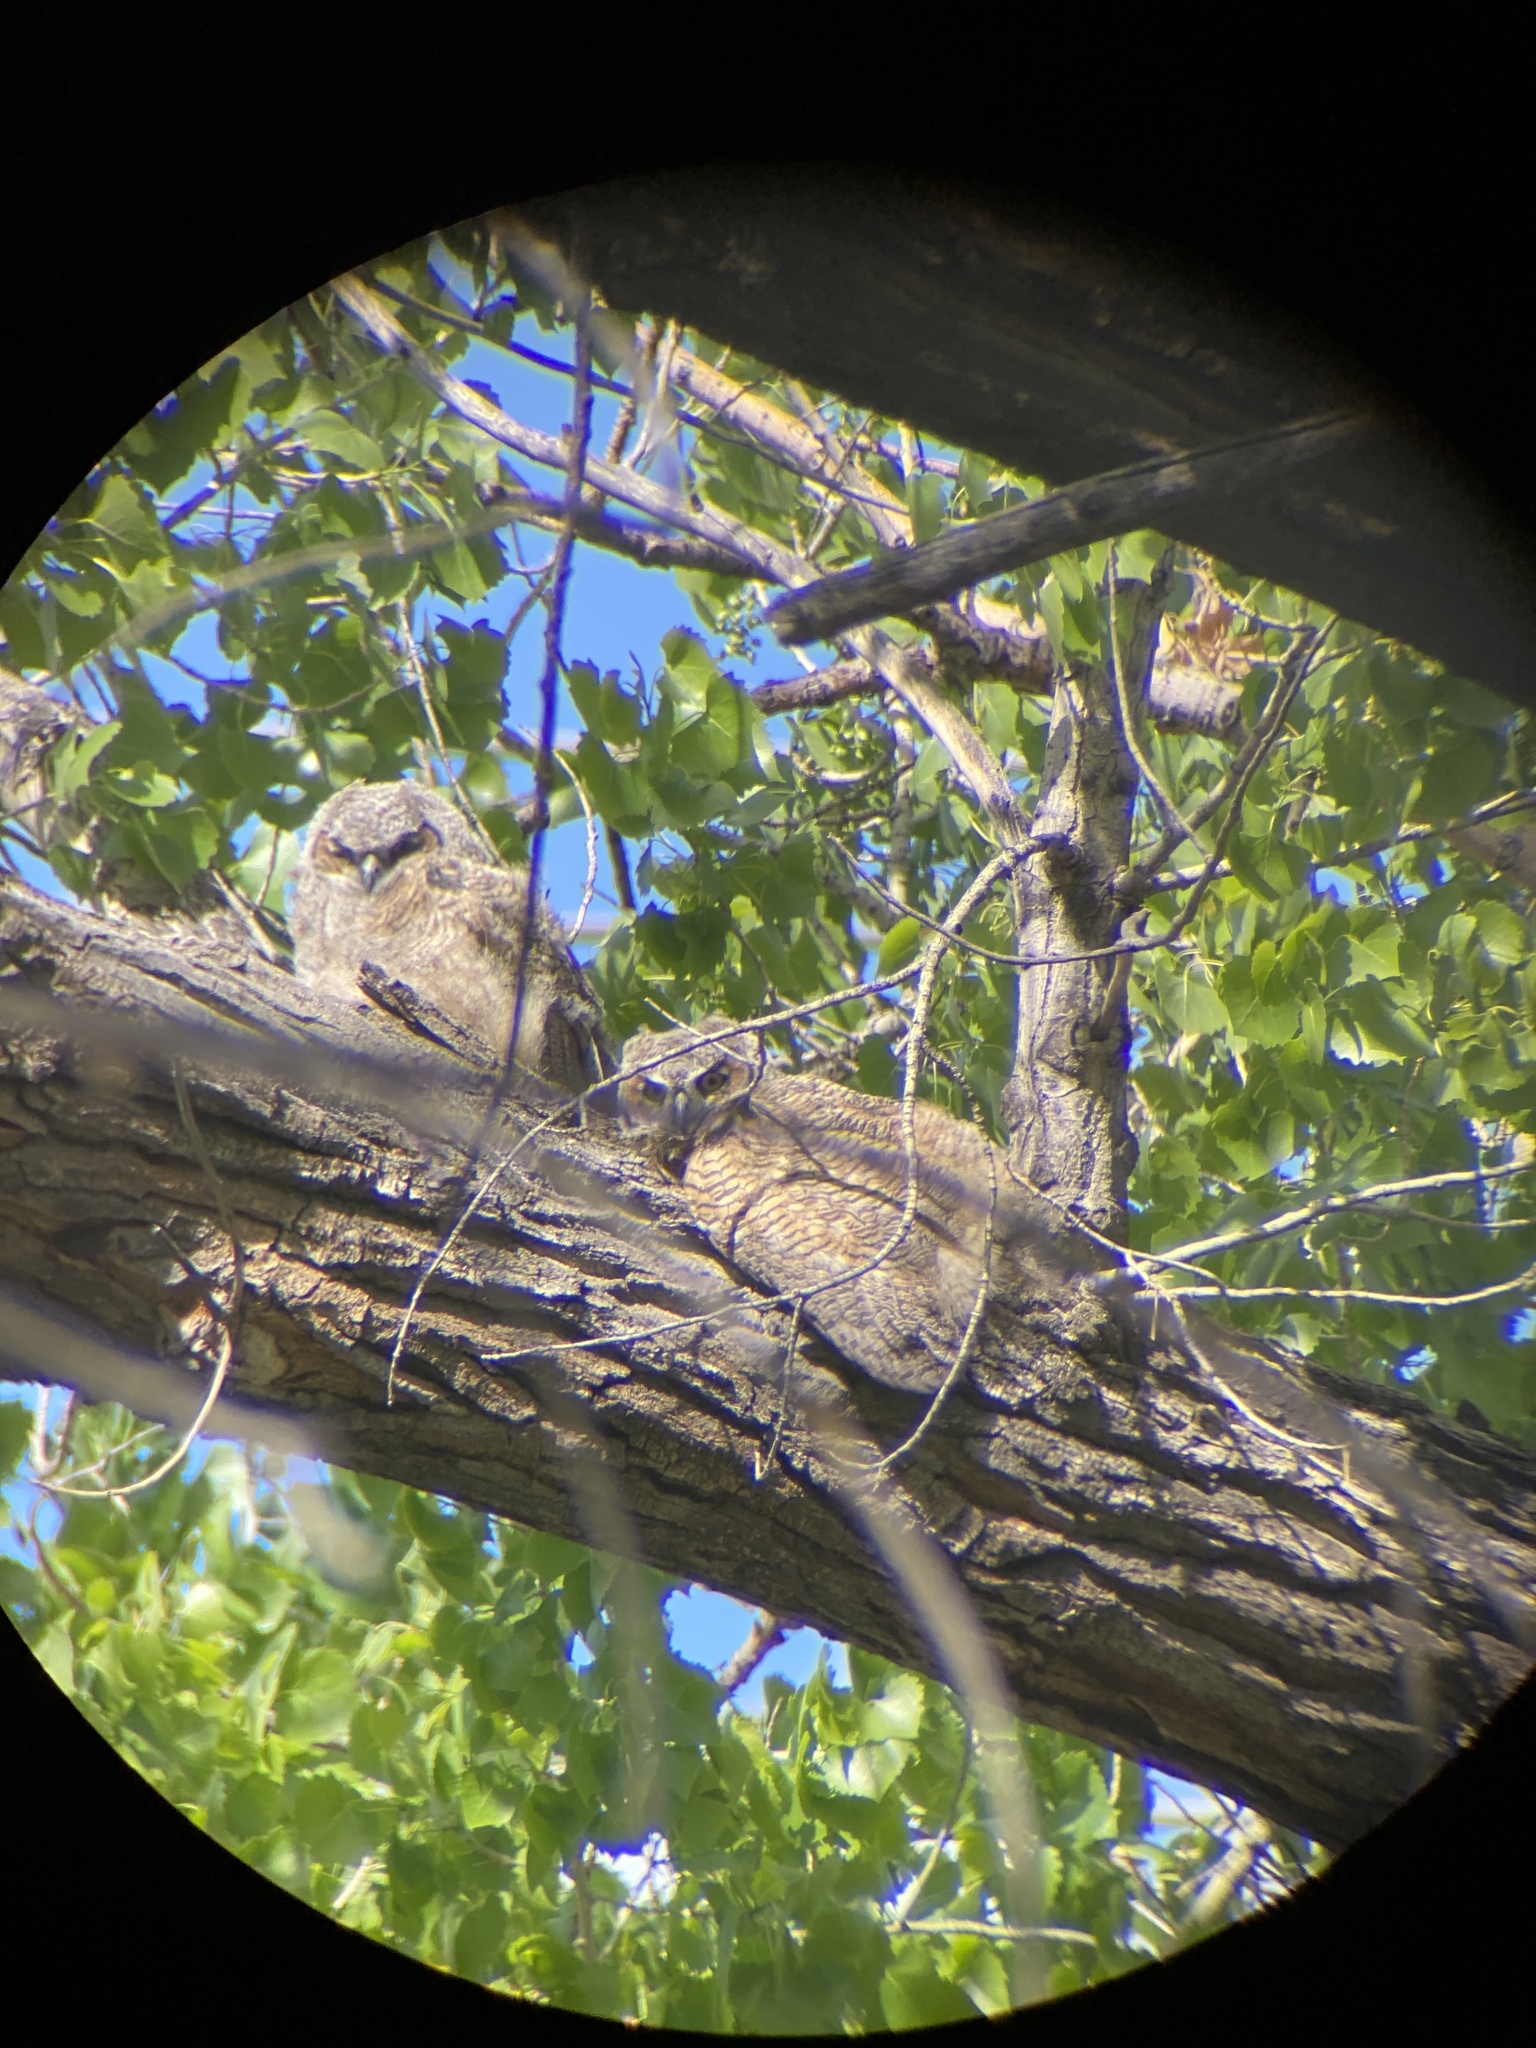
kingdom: Animalia
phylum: Chordata
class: Aves
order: Strigiformes
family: Strigidae
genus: Bubo
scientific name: Bubo virginianus
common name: Great horned owl
